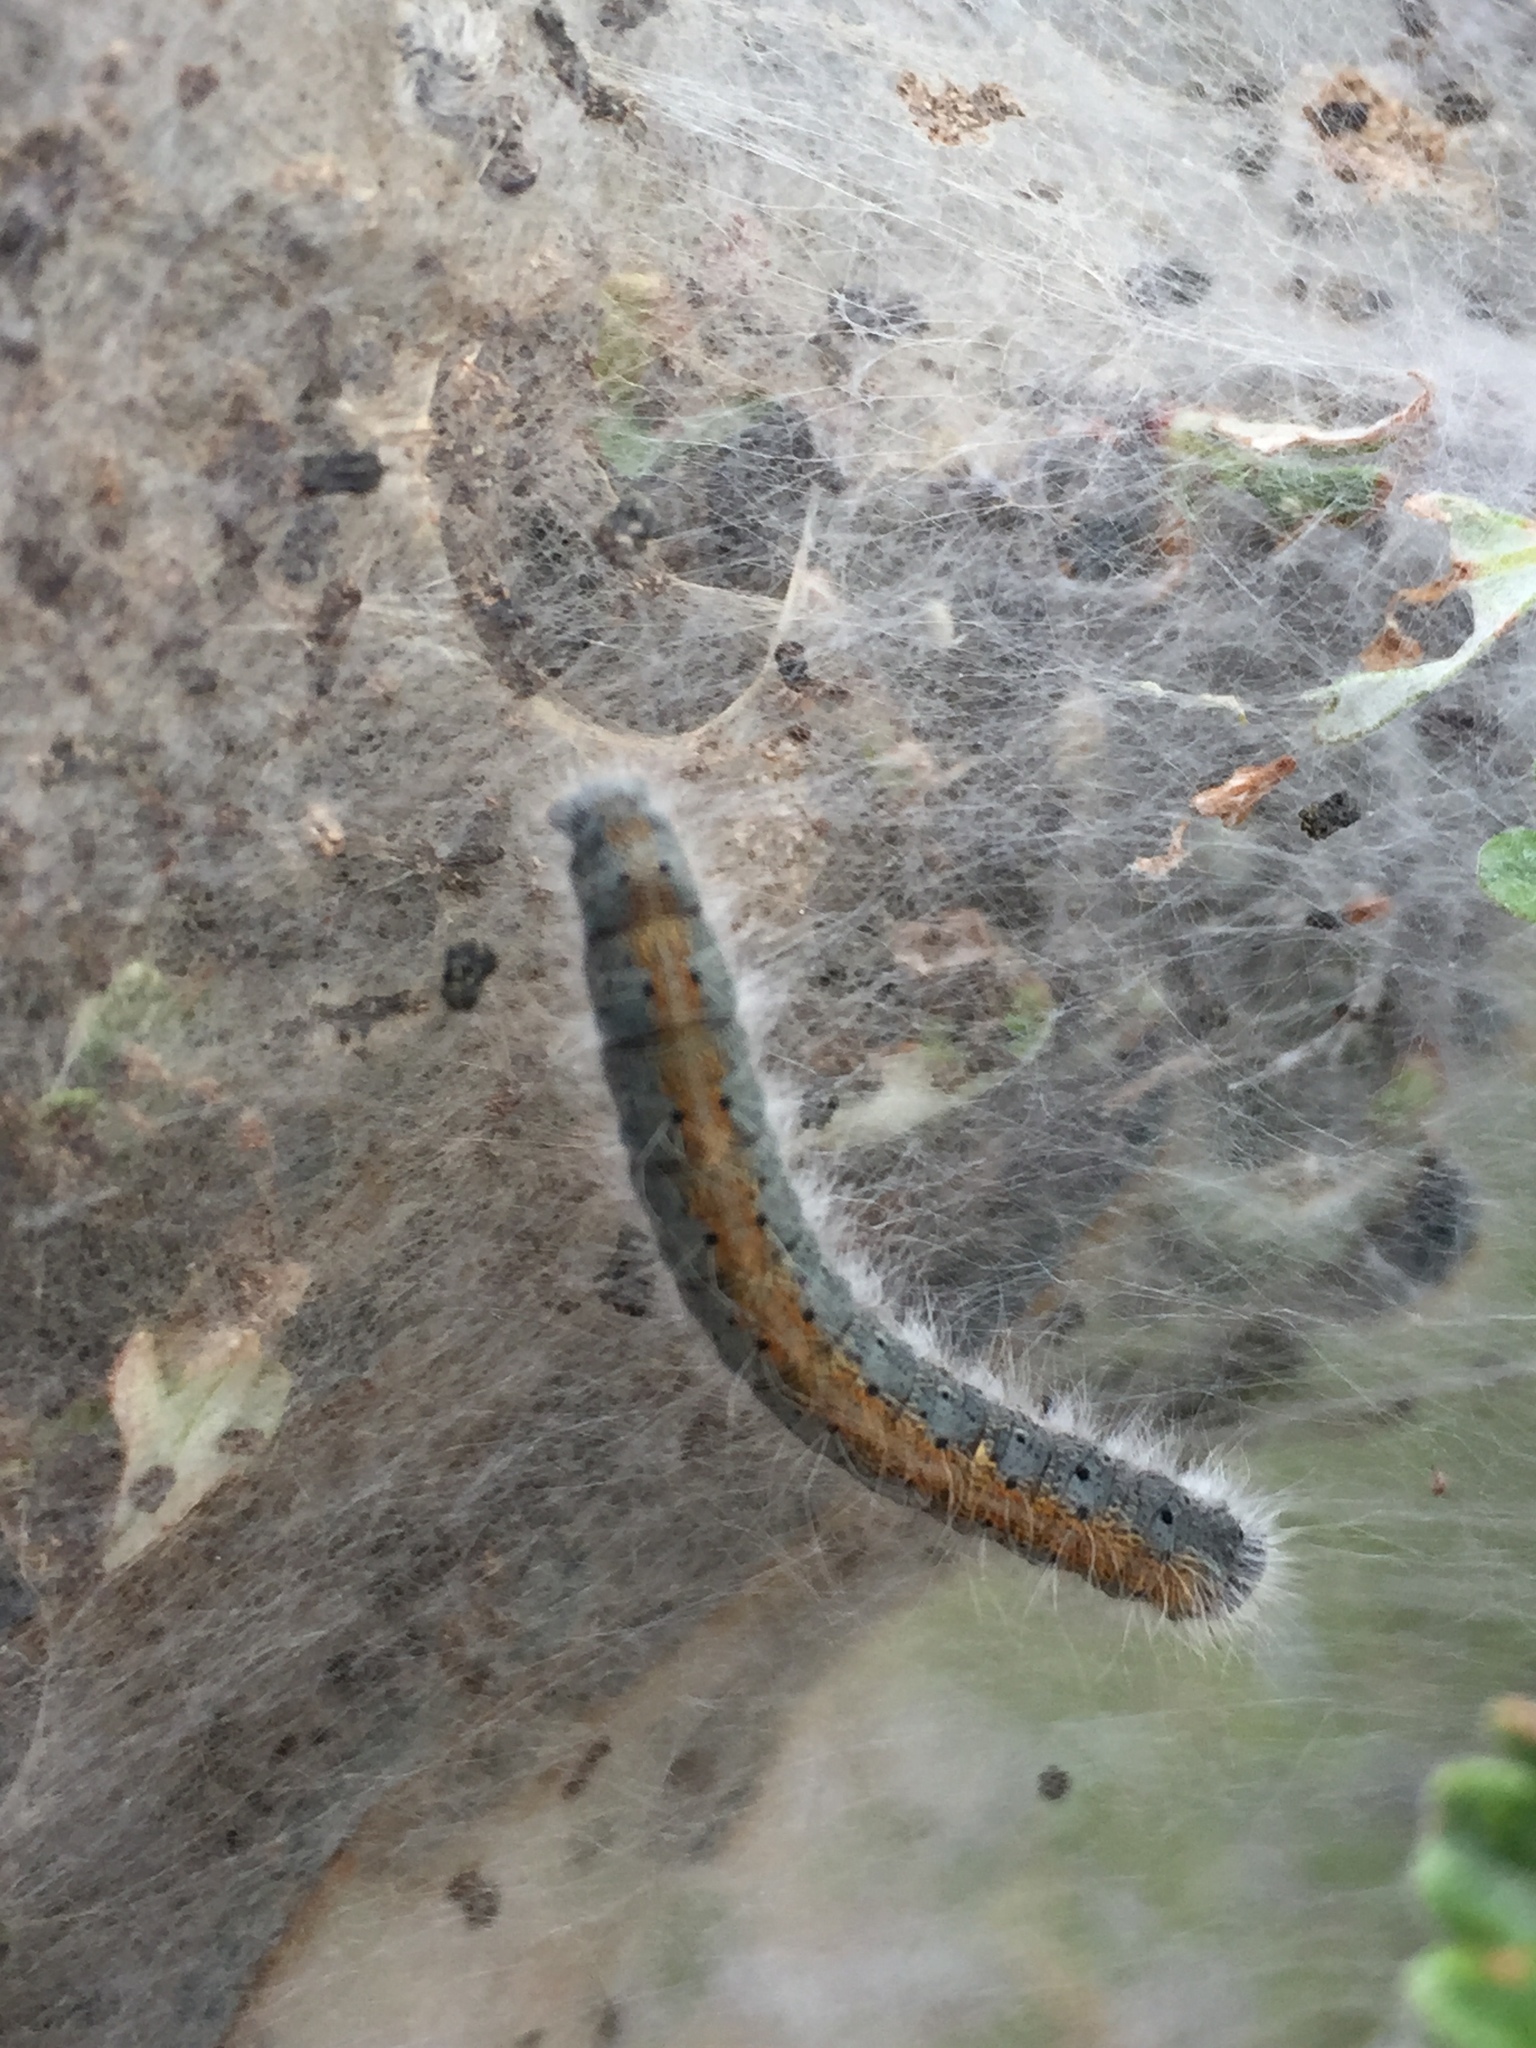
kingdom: Animalia
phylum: Arthropoda
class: Insecta
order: Lepidoptera
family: Lasiocampidae
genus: Malacosoma
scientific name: Malacosoma incurva
